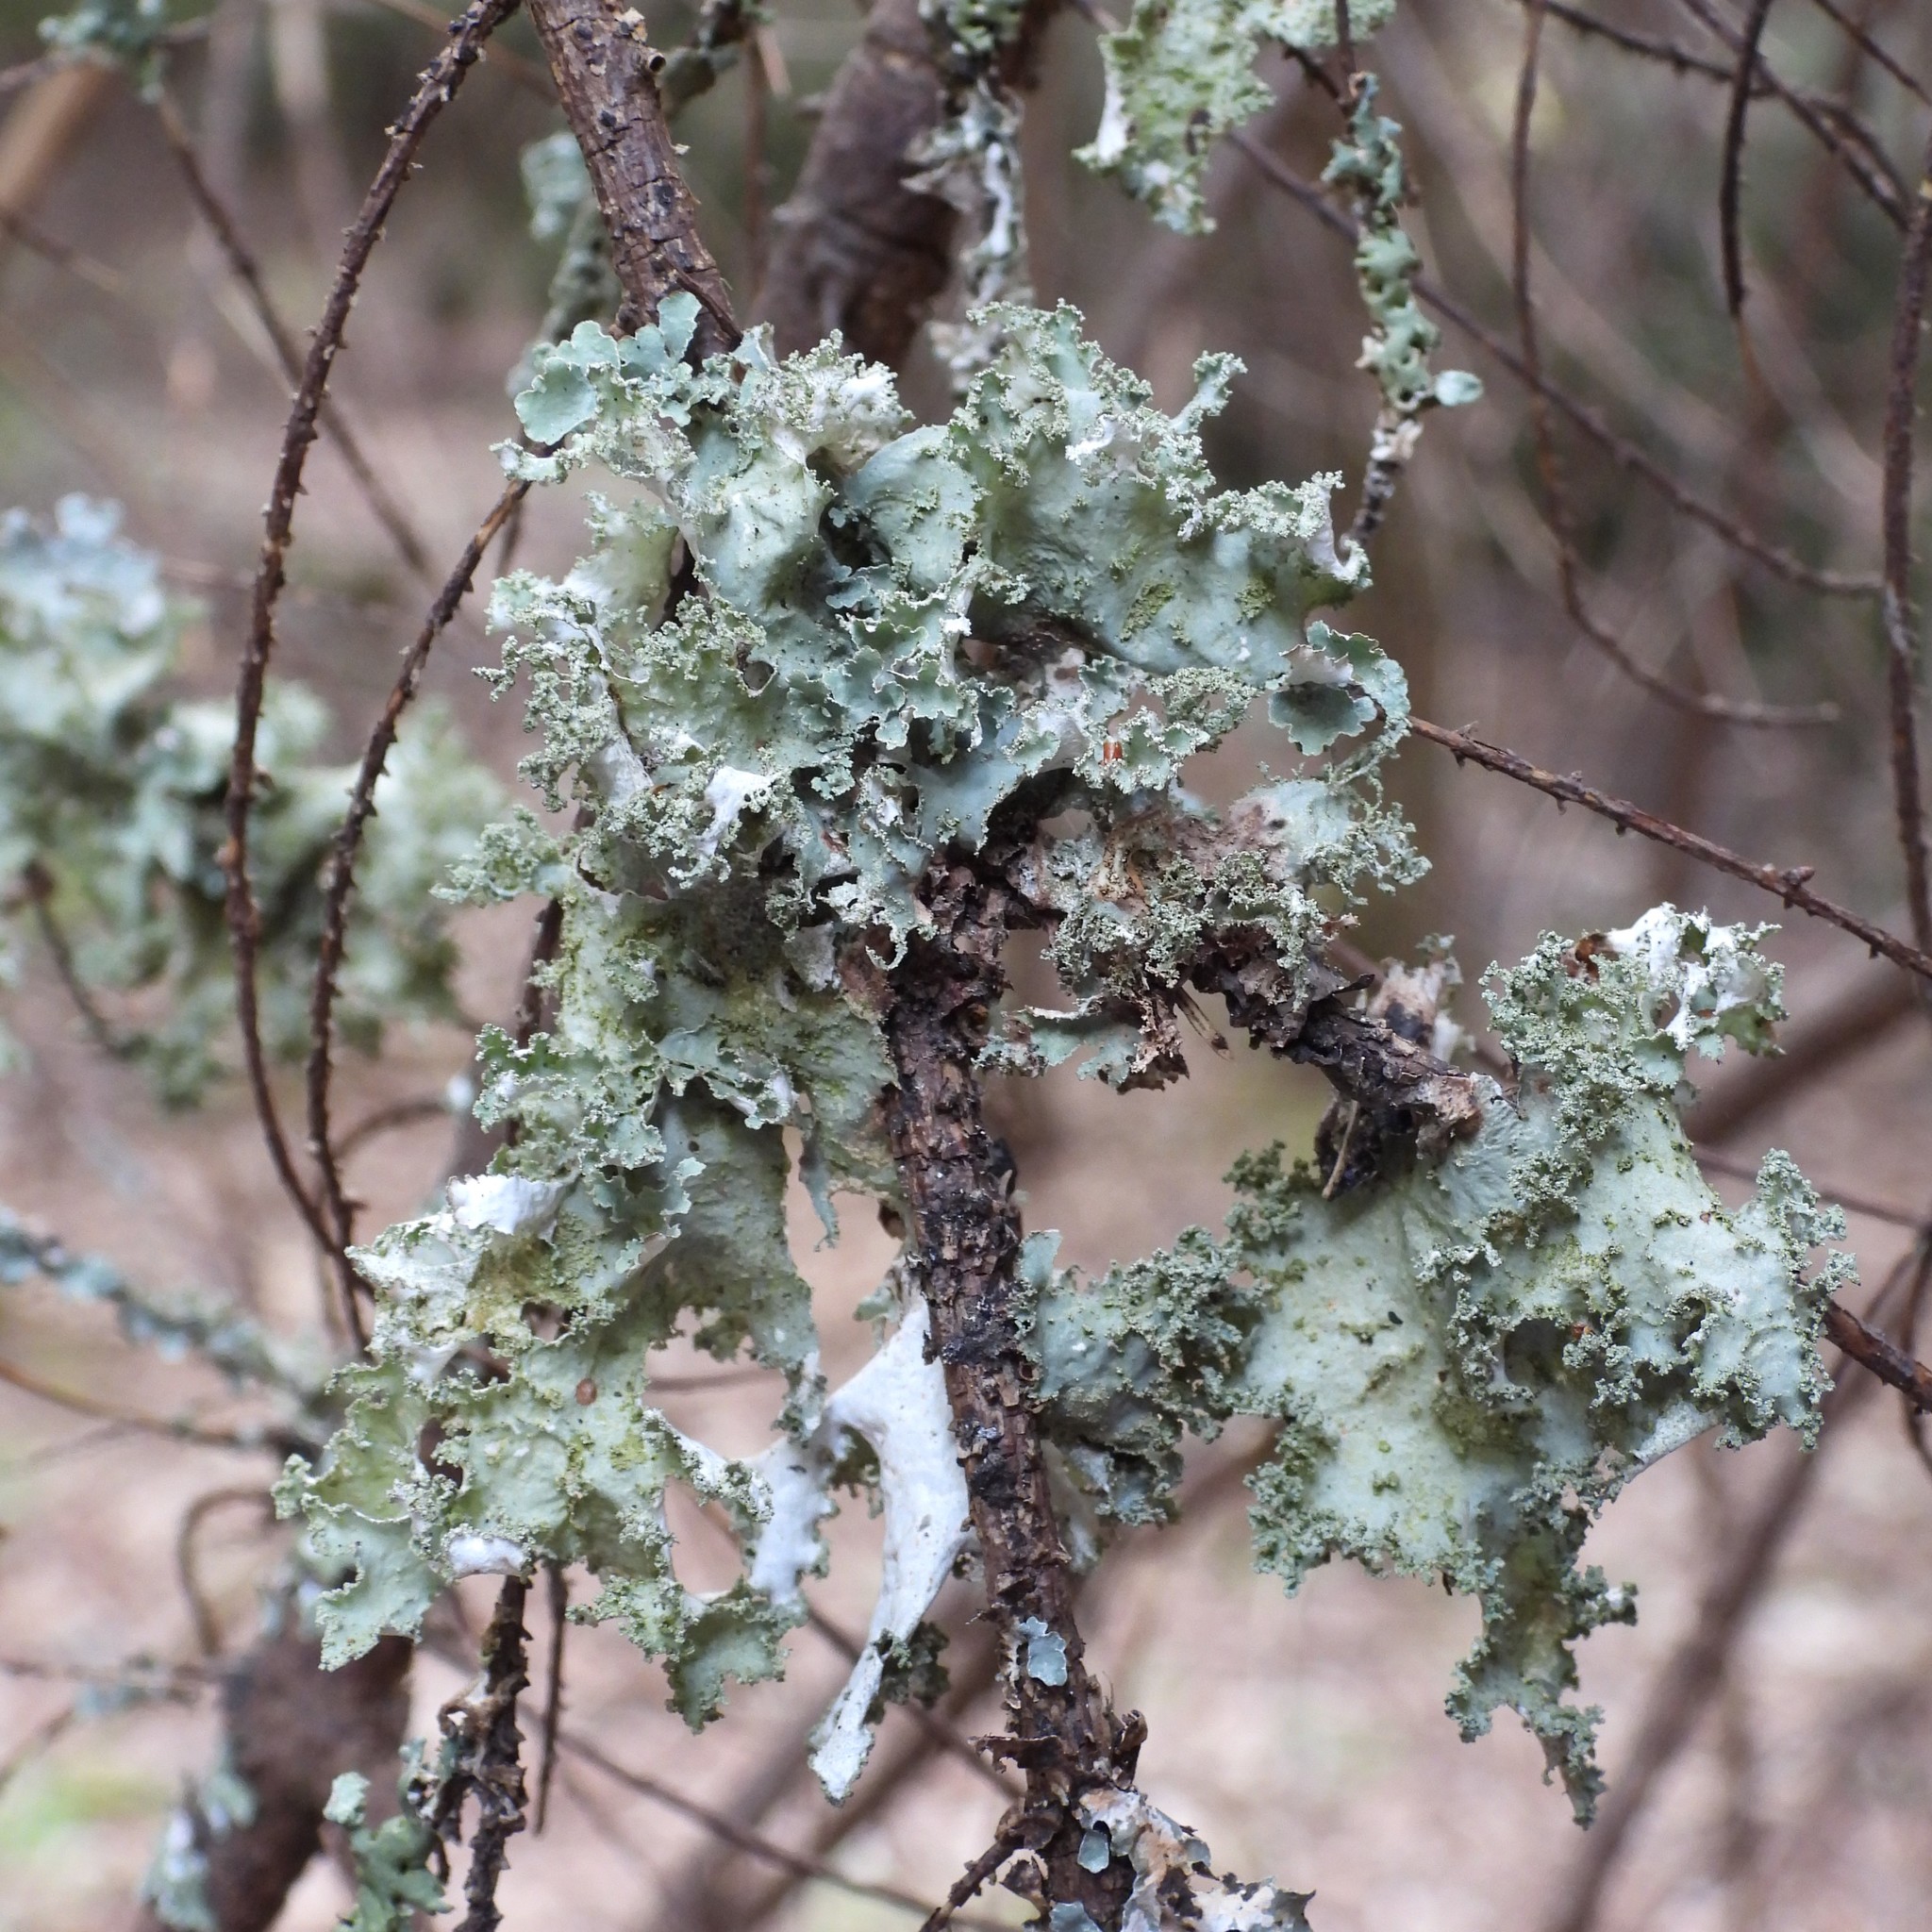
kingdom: Fungi
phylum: Ascomycota
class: Lecanoromycetes
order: Lecanorales
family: Parmeliaceae
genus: Platismatia
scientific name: Platismatia glauca
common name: Varied rag lichen
